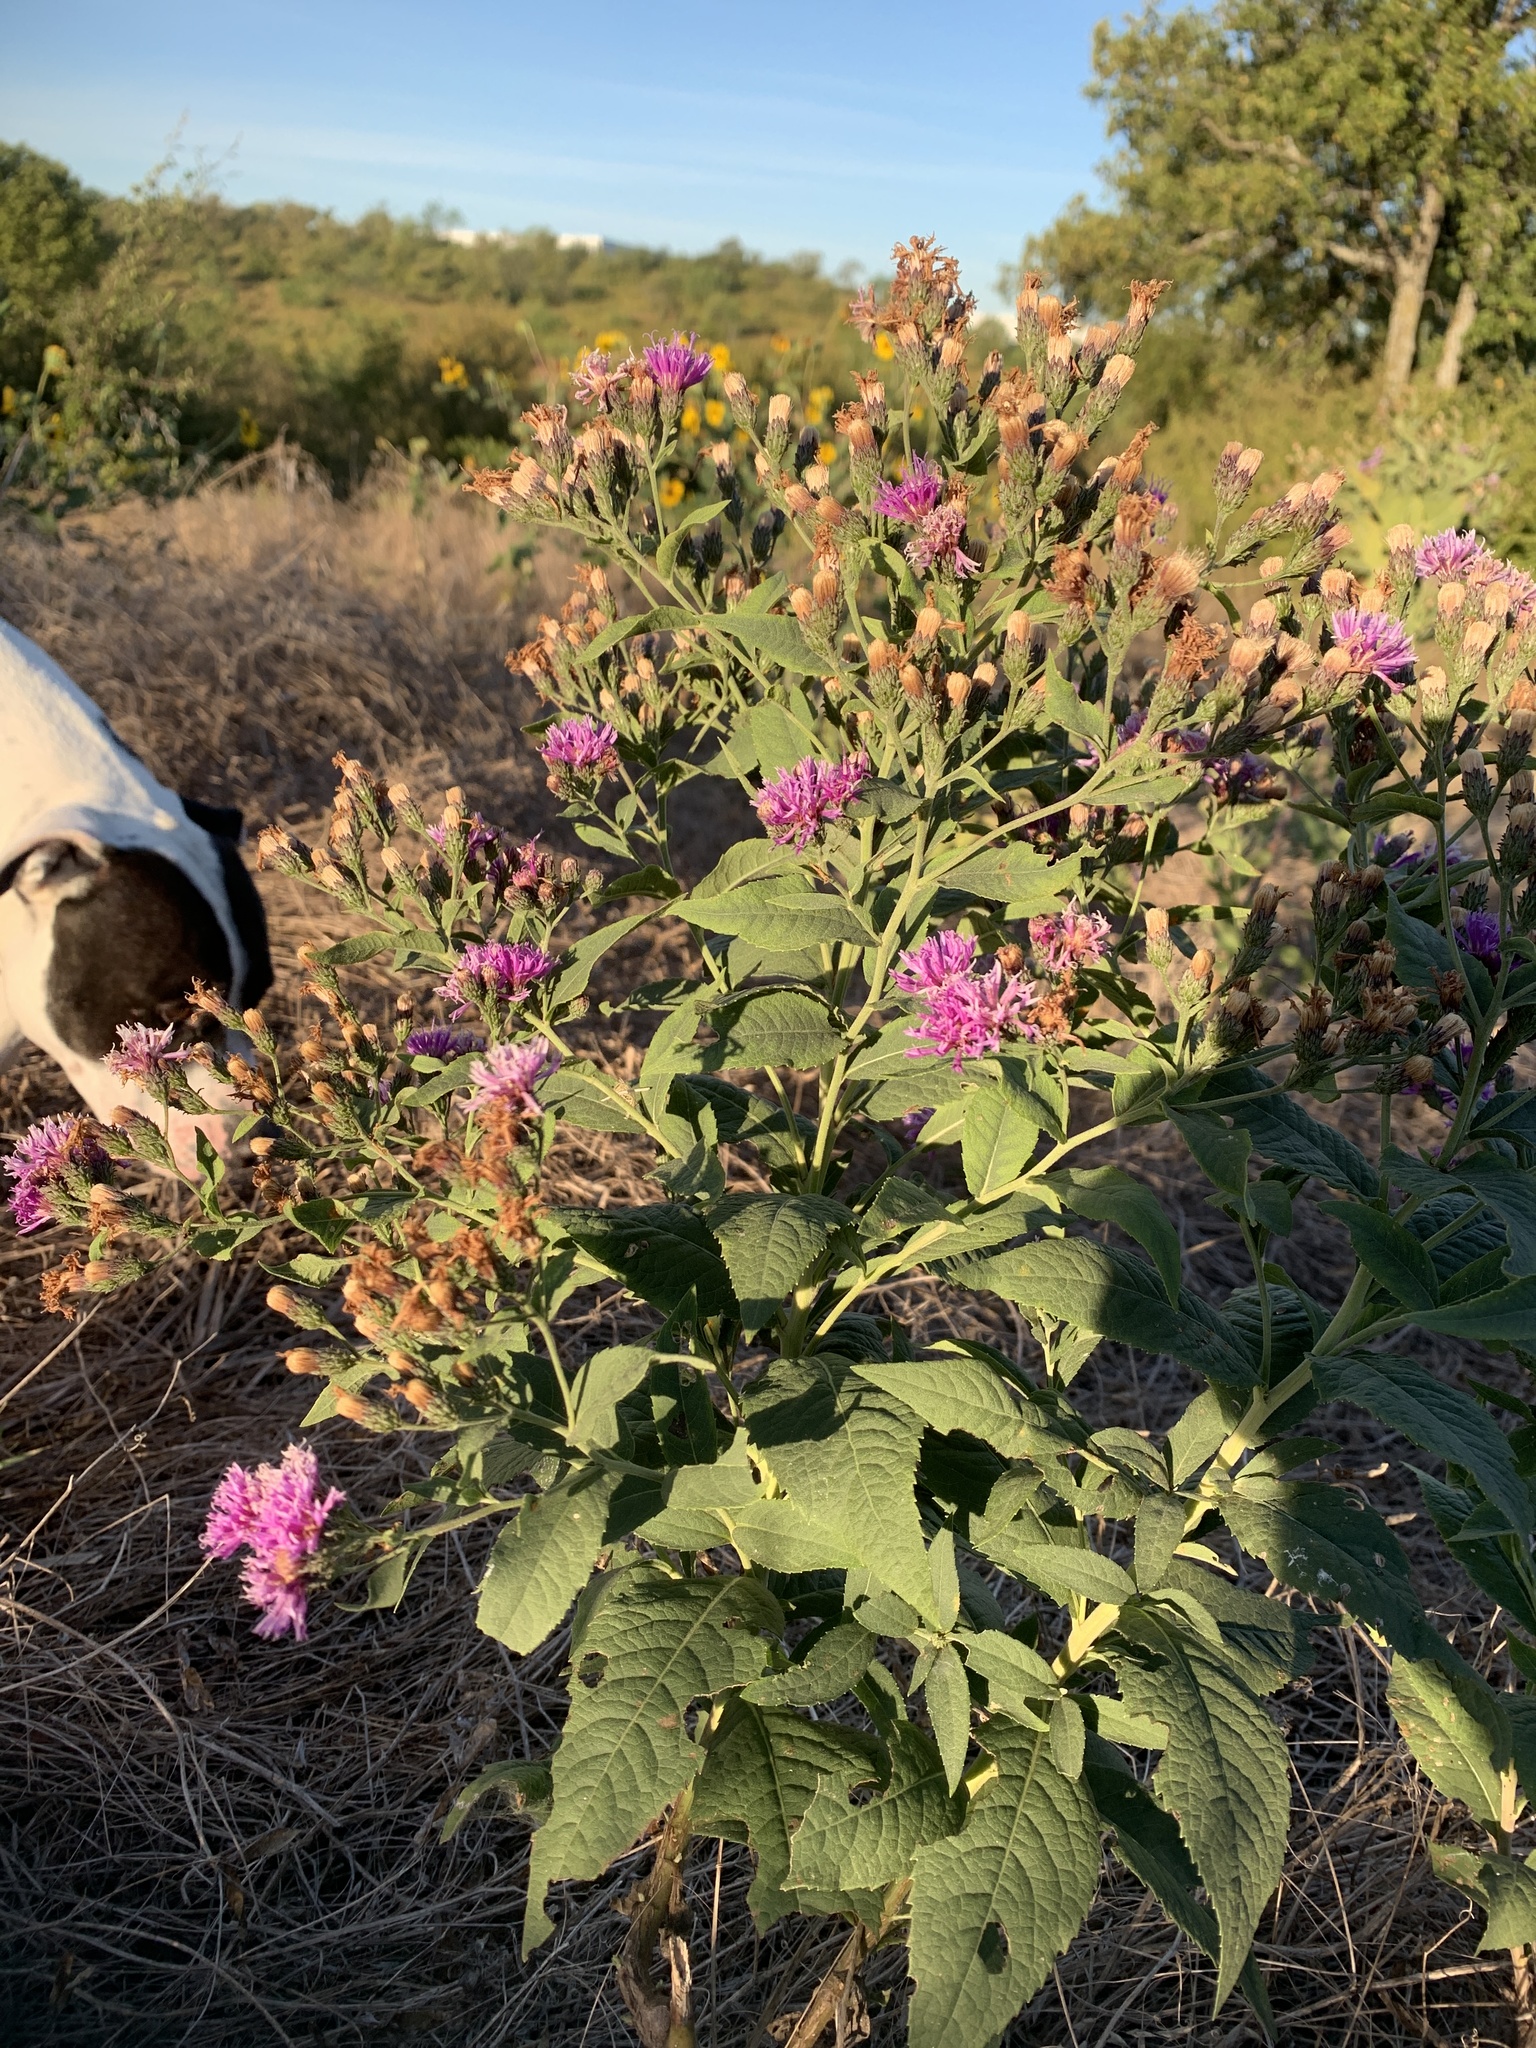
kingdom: Plantae
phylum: Tracheophyta
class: Magnoliopsida
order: Asterales
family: Asteraceae
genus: Vernonia
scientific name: Vernonia baldwinii
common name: Western ironweed
